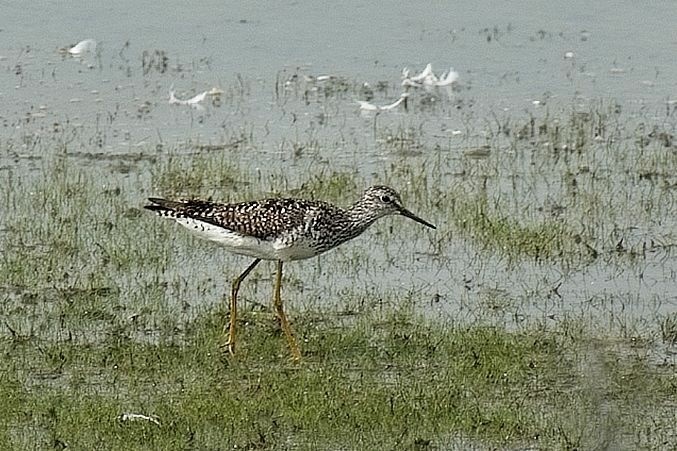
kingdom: Animalia
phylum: Chordata
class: Aves
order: Charadriiformes
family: Scolopacidae
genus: Tringa
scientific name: Tringa flavipes
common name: Lesser yellowlegs
